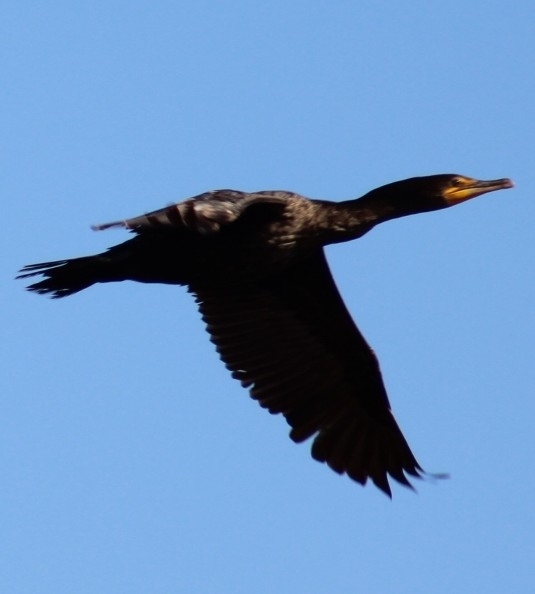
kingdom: Animalia
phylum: Chordata
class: Aves
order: Suliformes
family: Phalacrocoracidae
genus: Phalacrocorax
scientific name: Phalacrocorax auritus
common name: Double-crested cormorant
